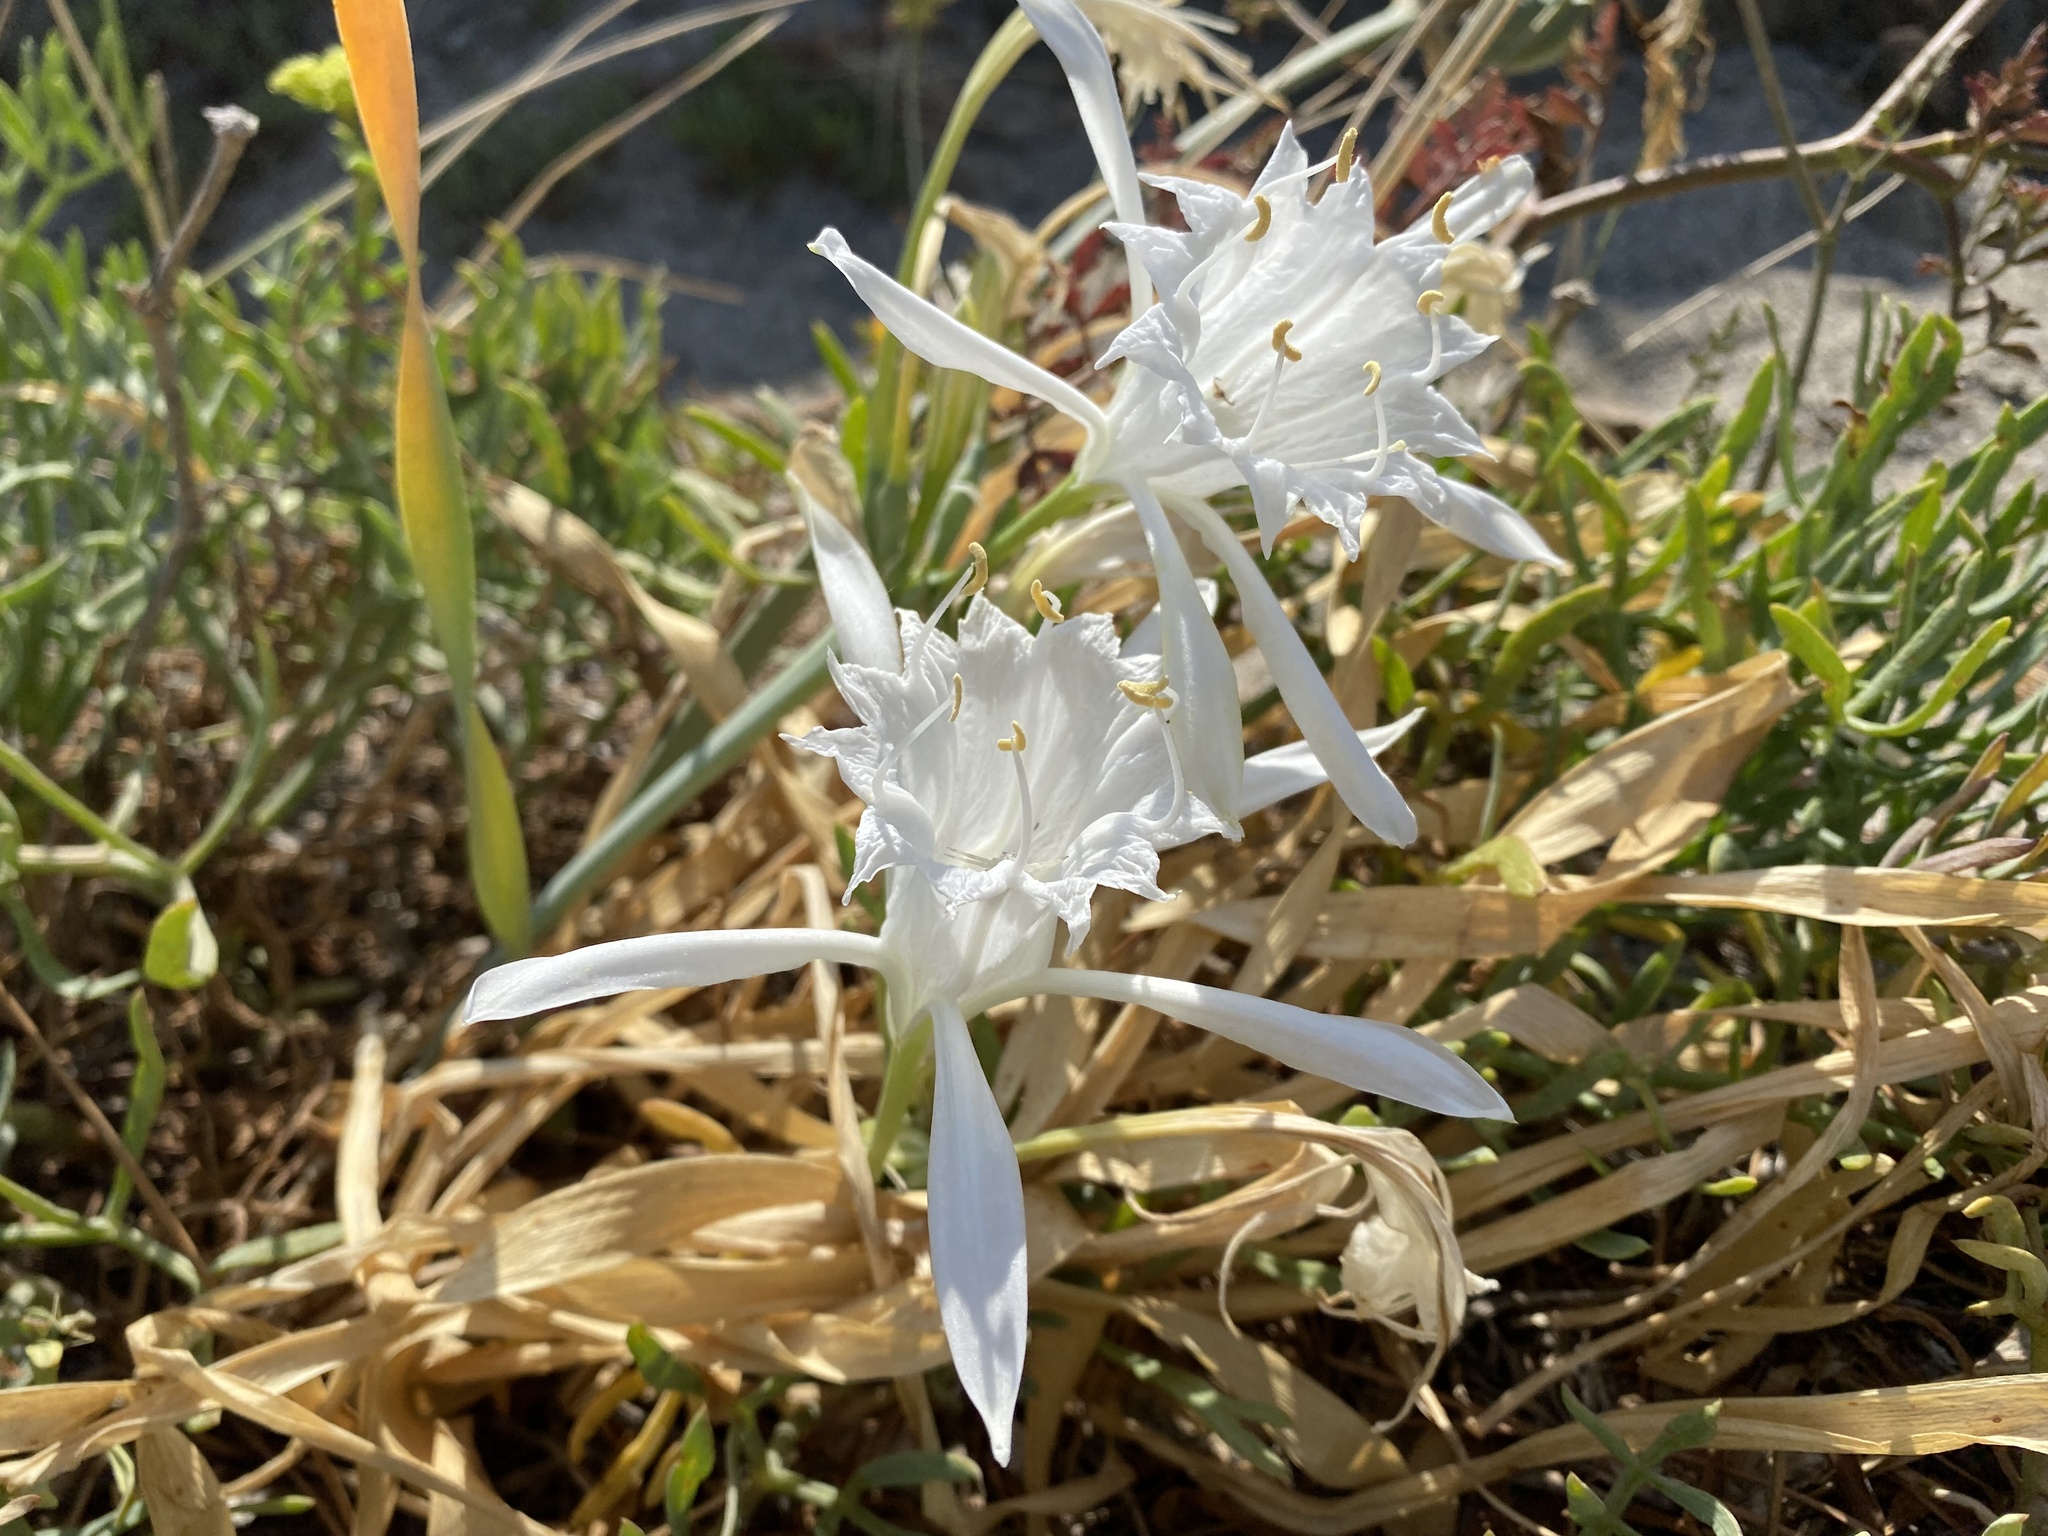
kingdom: Plantae
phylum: Tracheophyta
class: Liliopsida
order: Asparagales
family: Amaryllidaceae
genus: Pancratium
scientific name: Pancratium maritimum
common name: Sea-daffodil
